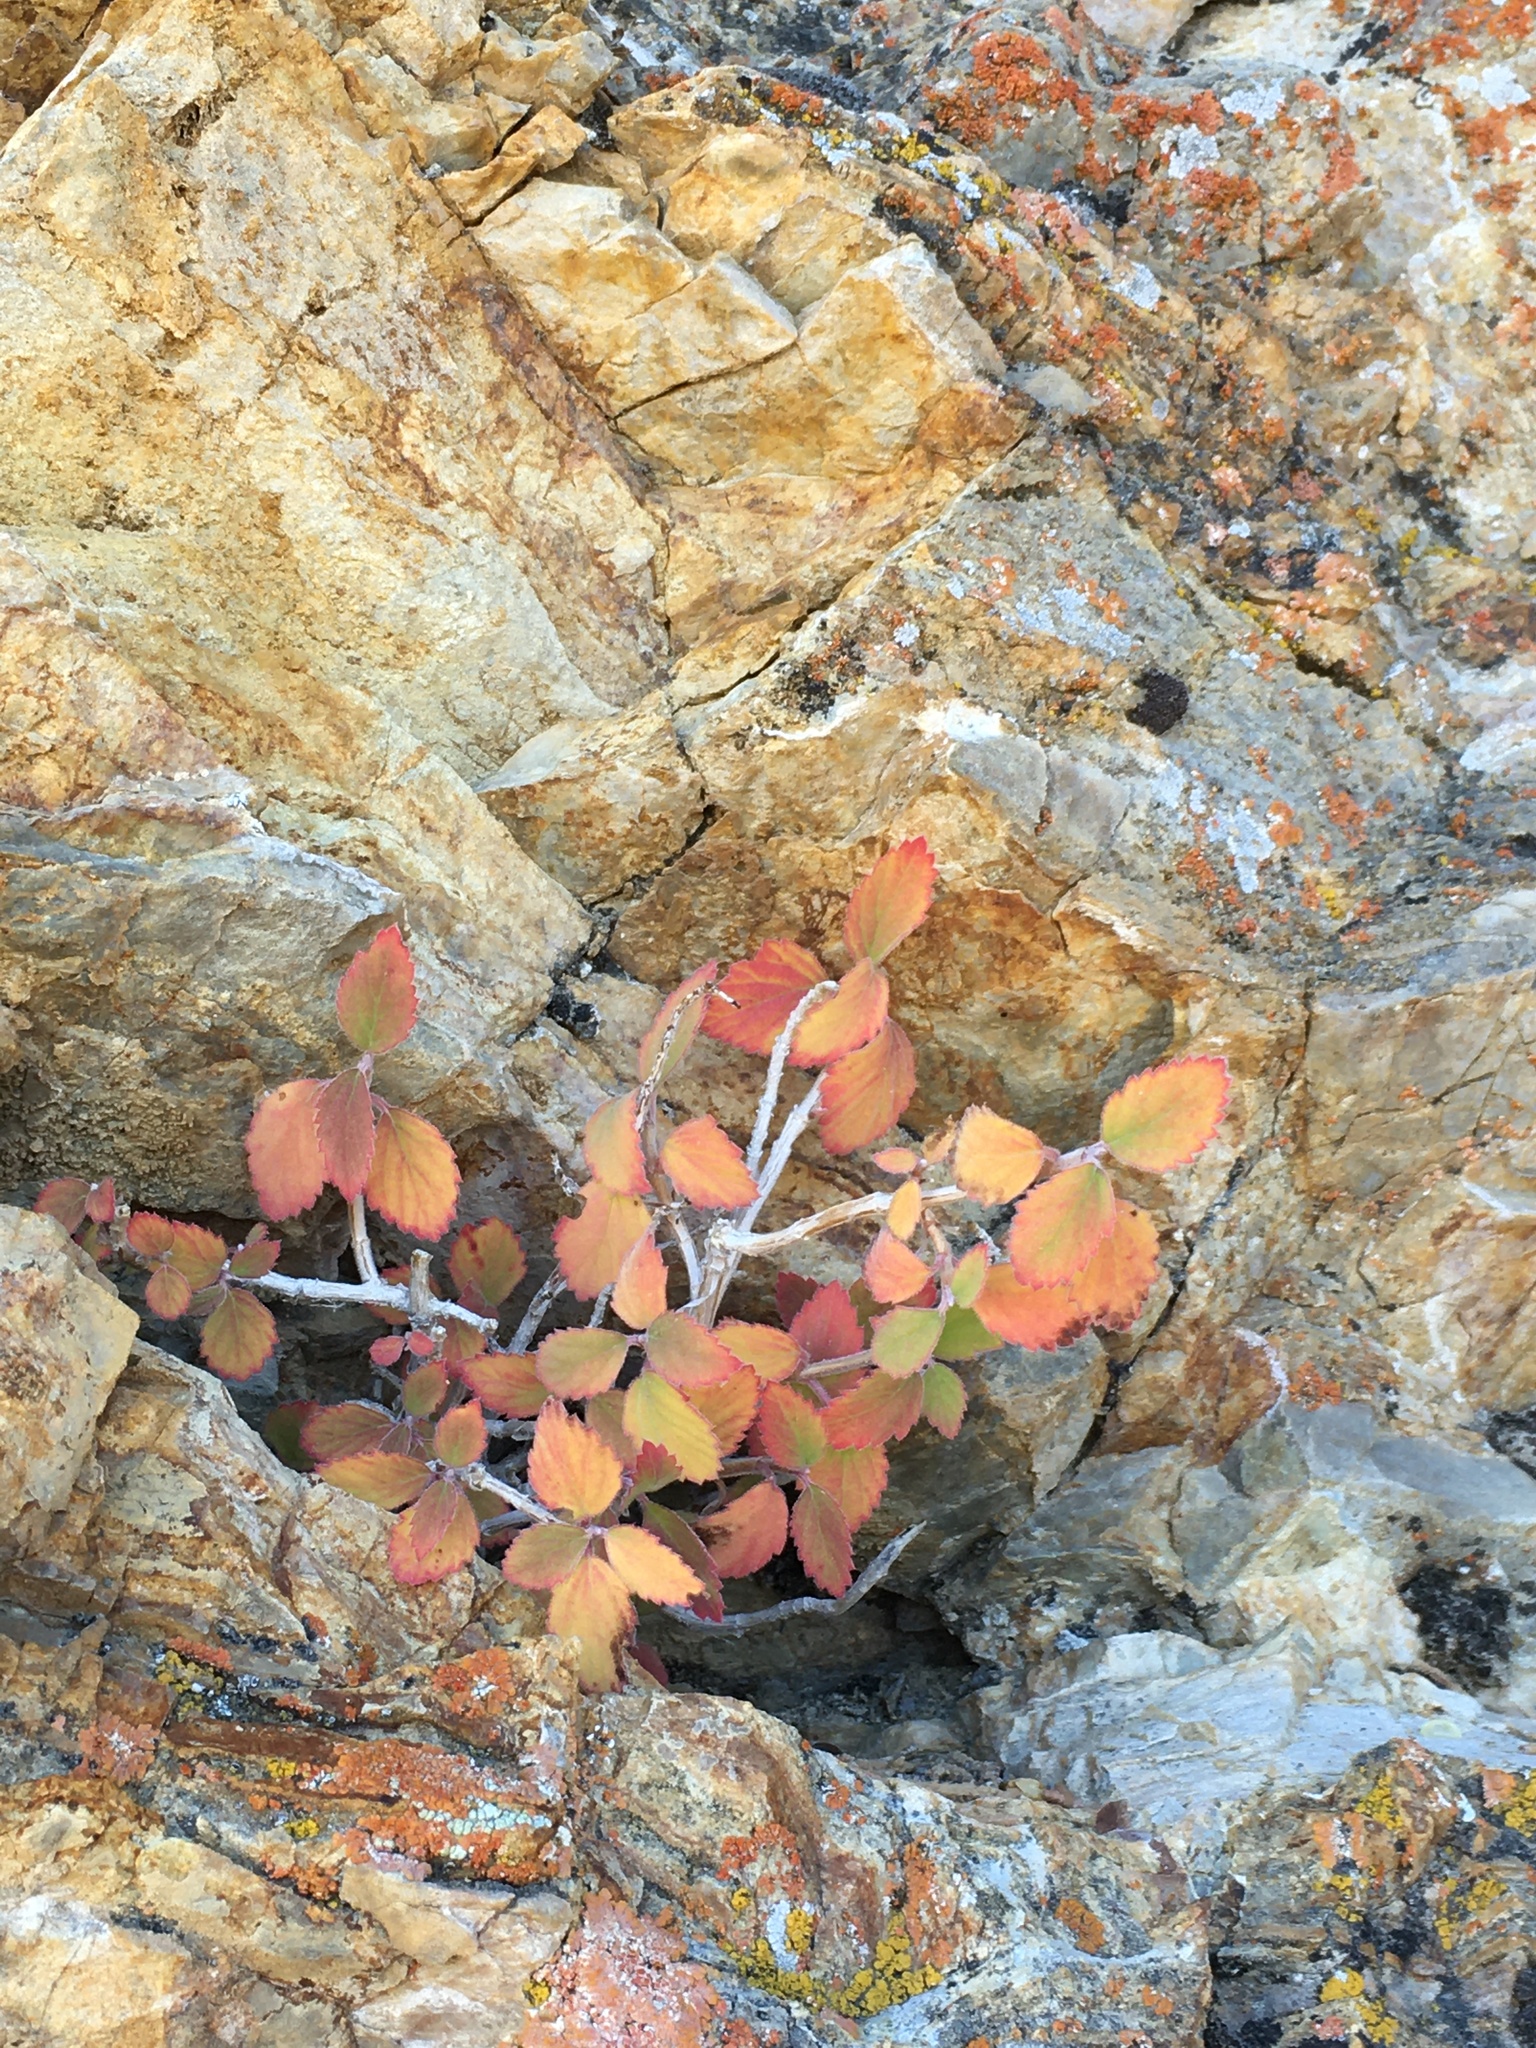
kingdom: Plantae
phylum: Tracheophyta
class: Magnoliopsida
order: Cornales
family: Hydrangeaceae
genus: Jamesia
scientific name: Jamesia americana
